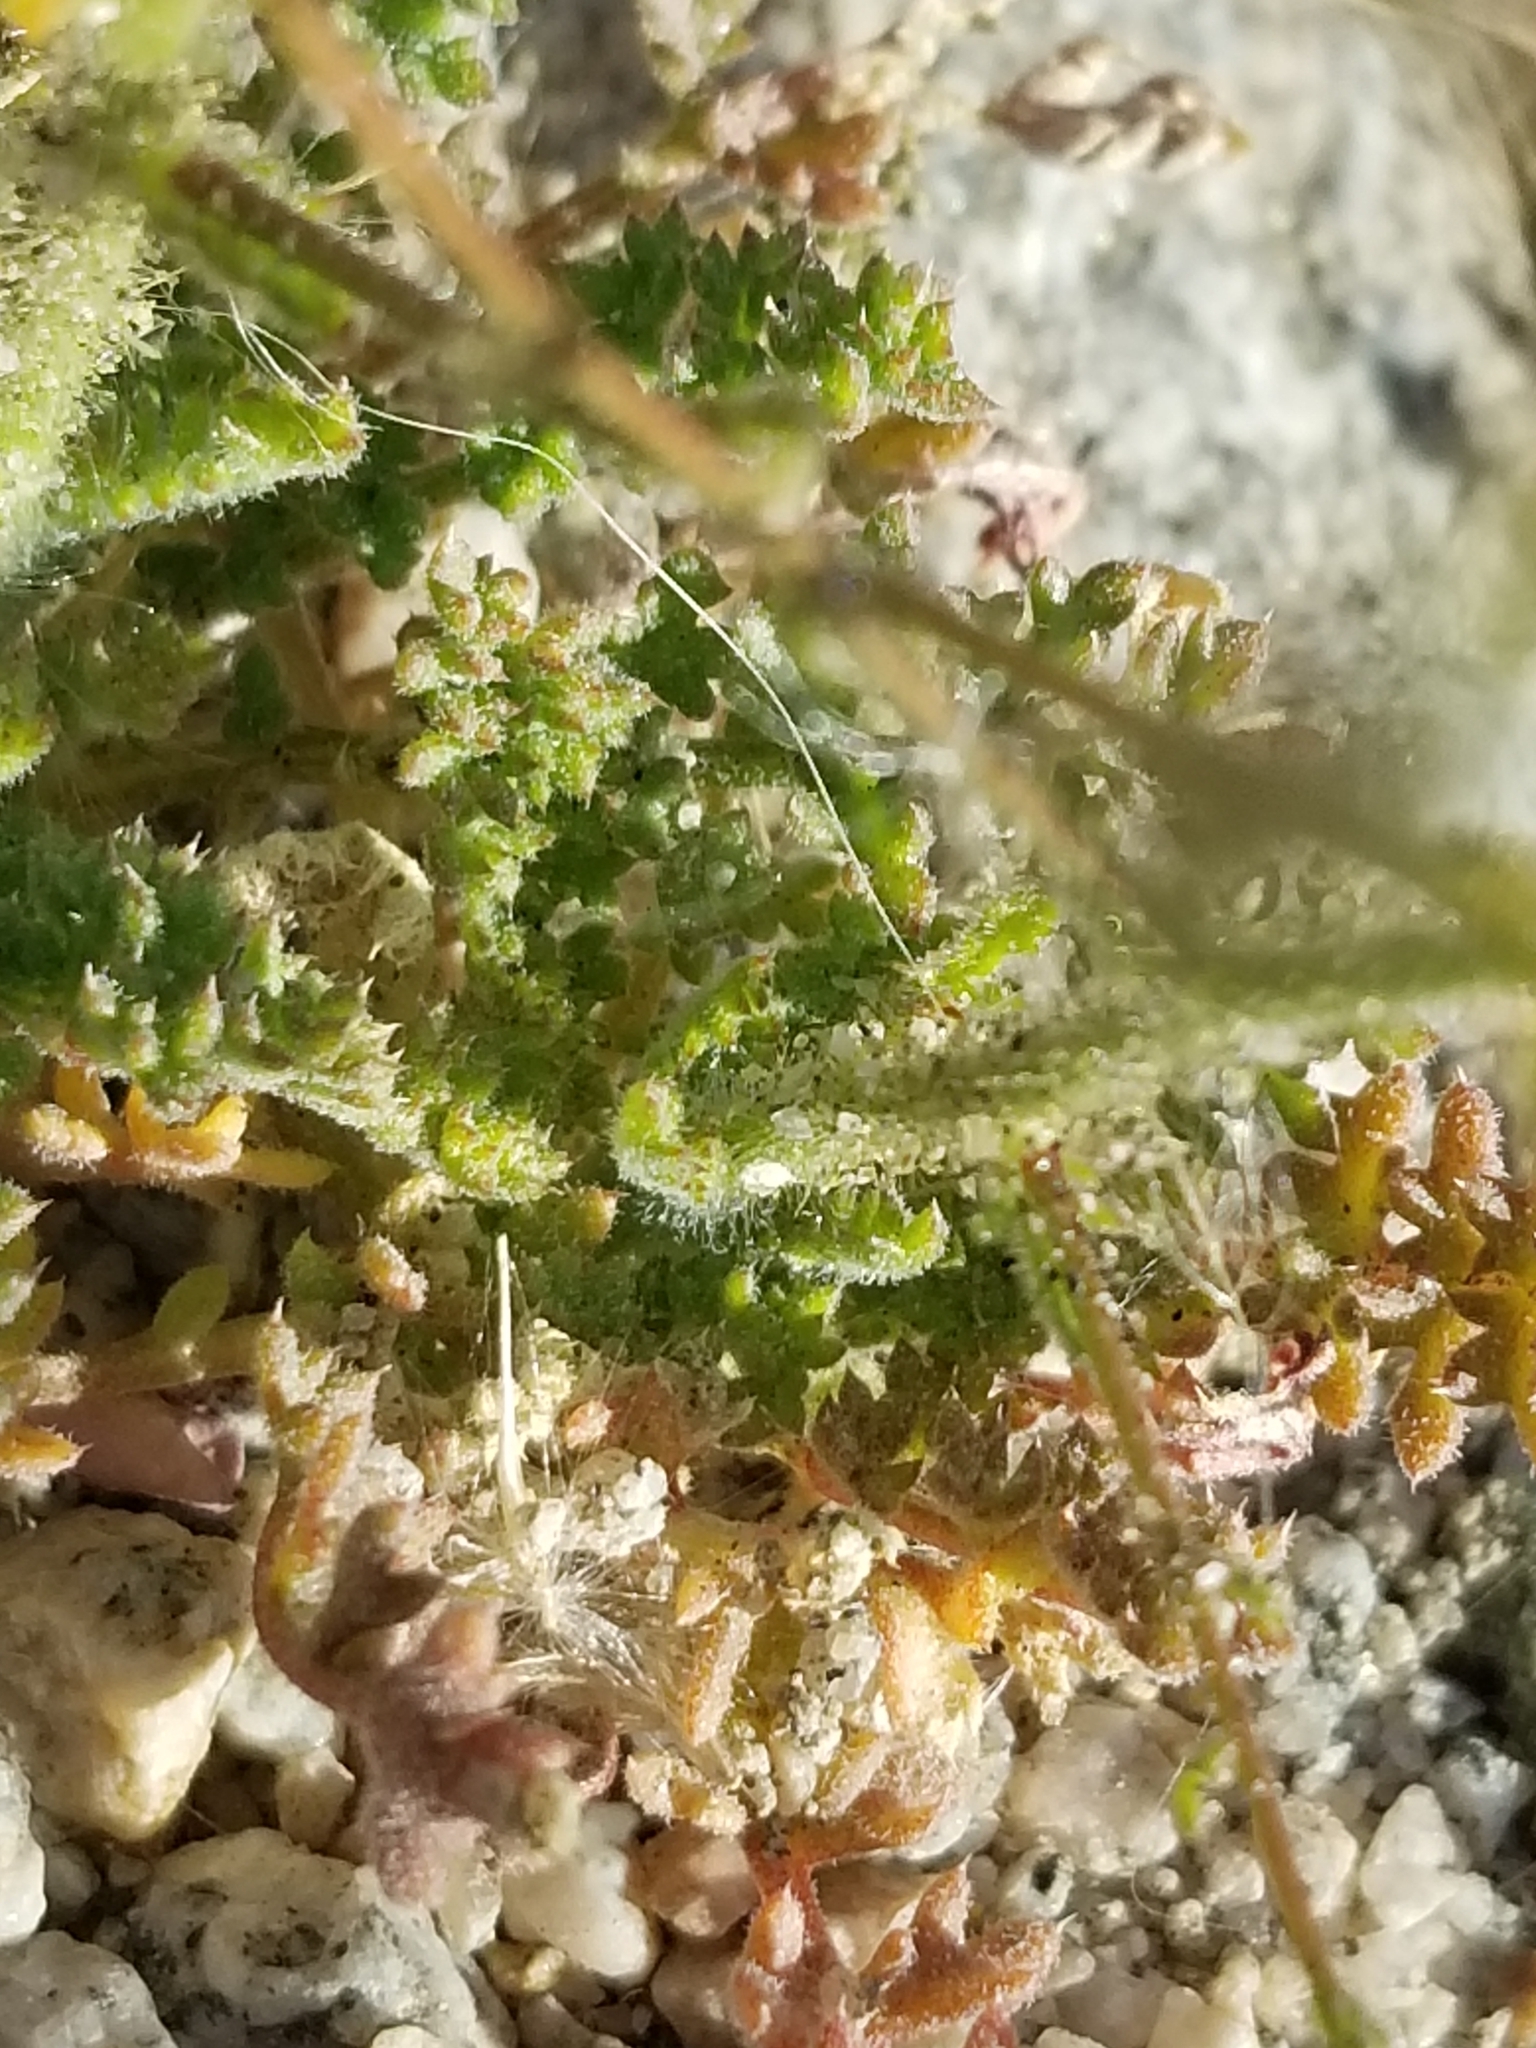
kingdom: Plantae
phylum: Tracheophyta
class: Magnoliopsida
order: Ericales
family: Polemoniaceae
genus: Gilia
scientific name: Gilia stellata
